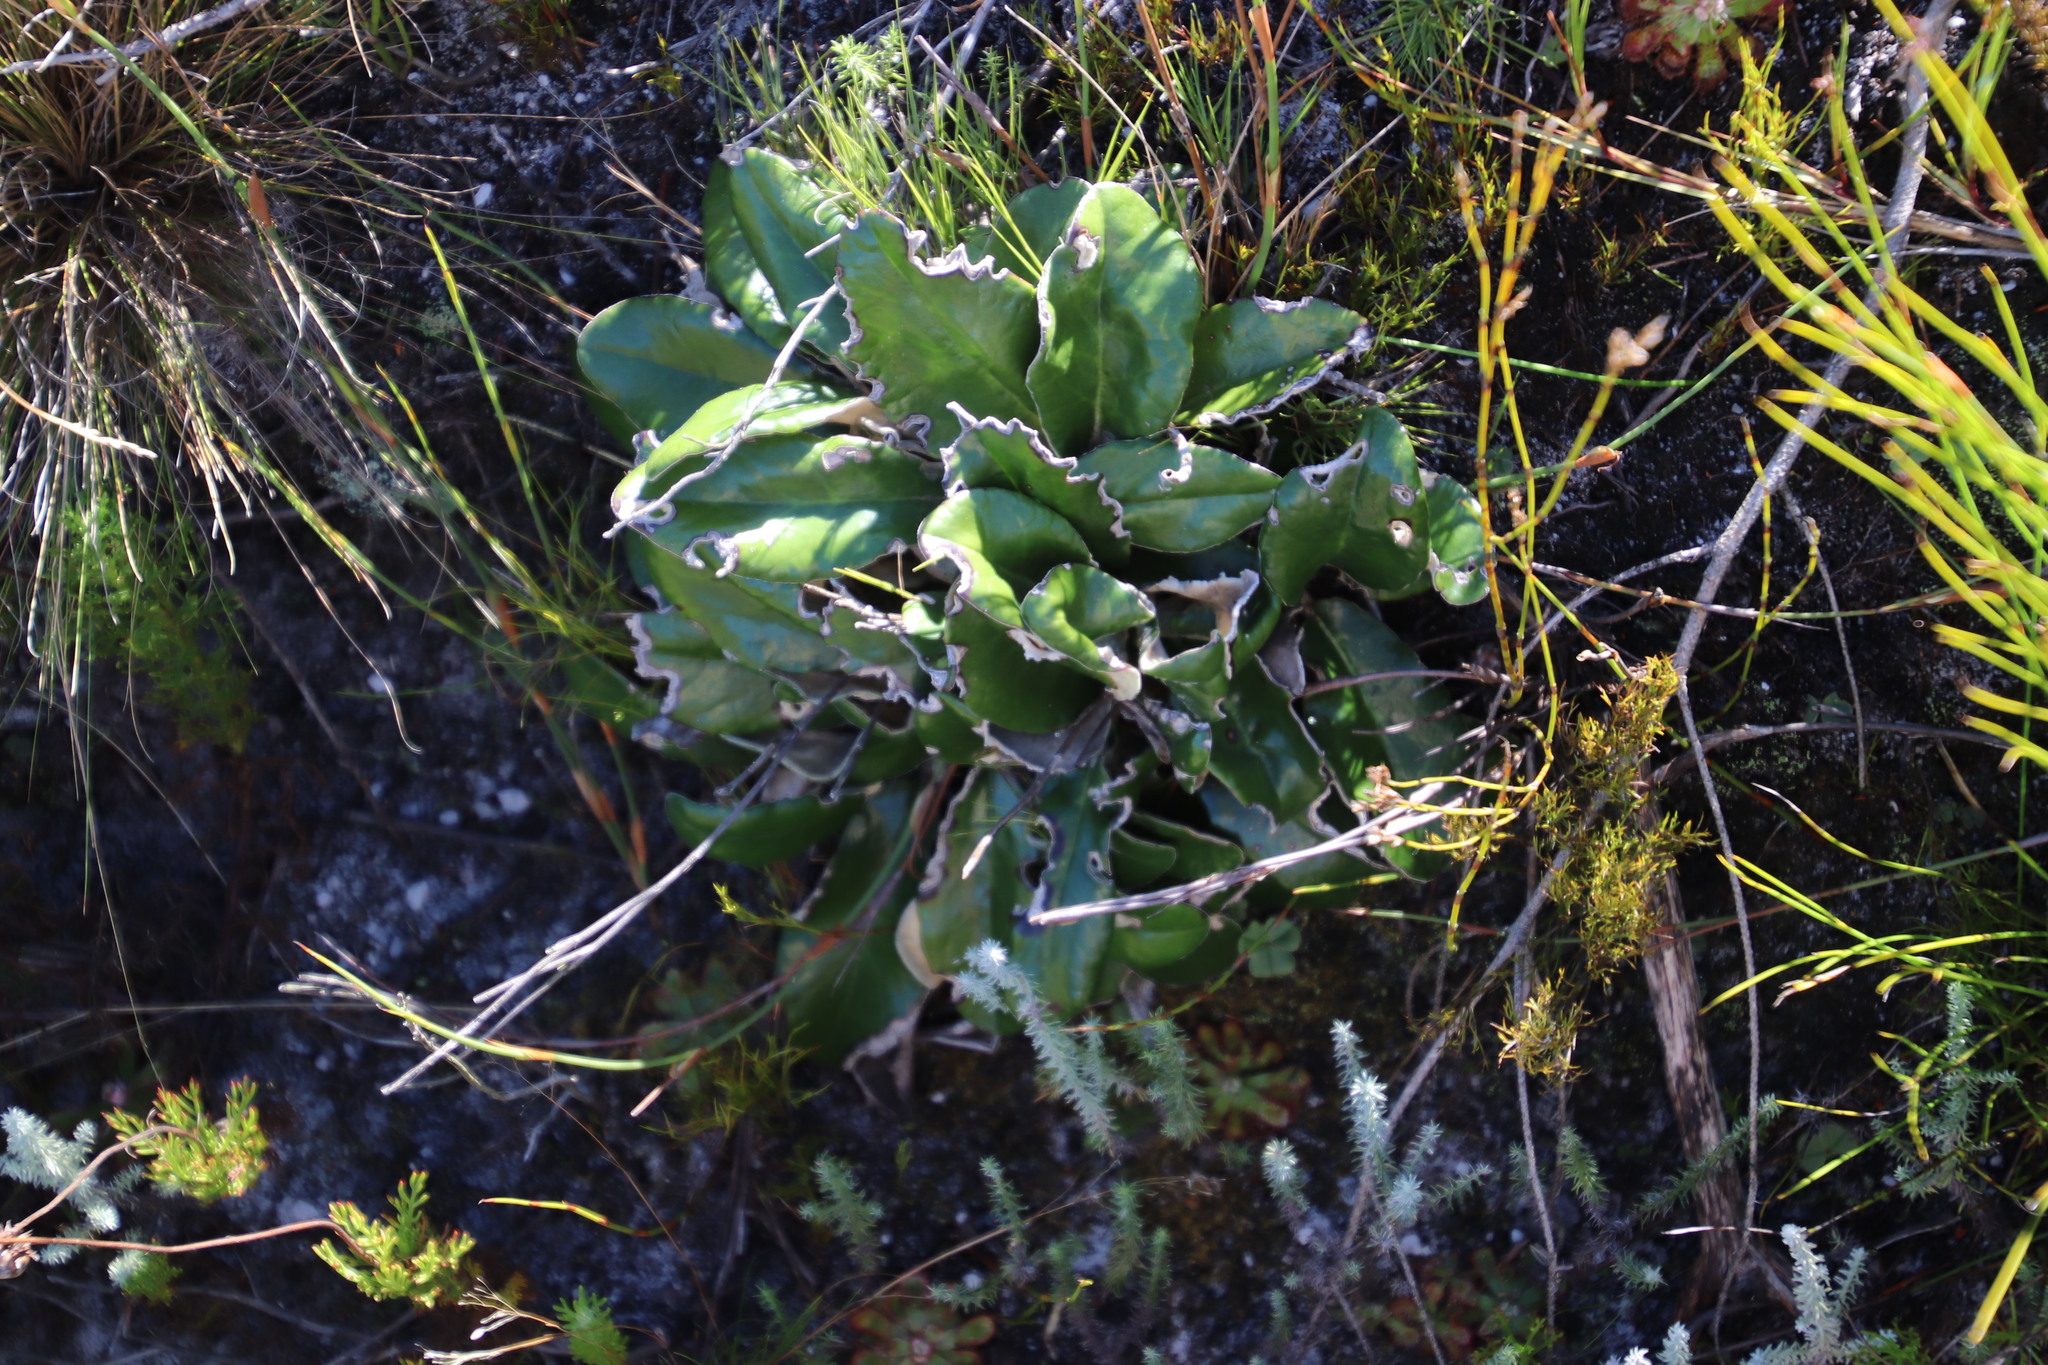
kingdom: Plantae
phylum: Tracheophyta
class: Magnoliopsida
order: Asterales
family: Asteraceae
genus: Capelio
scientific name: Capelio tabularis
